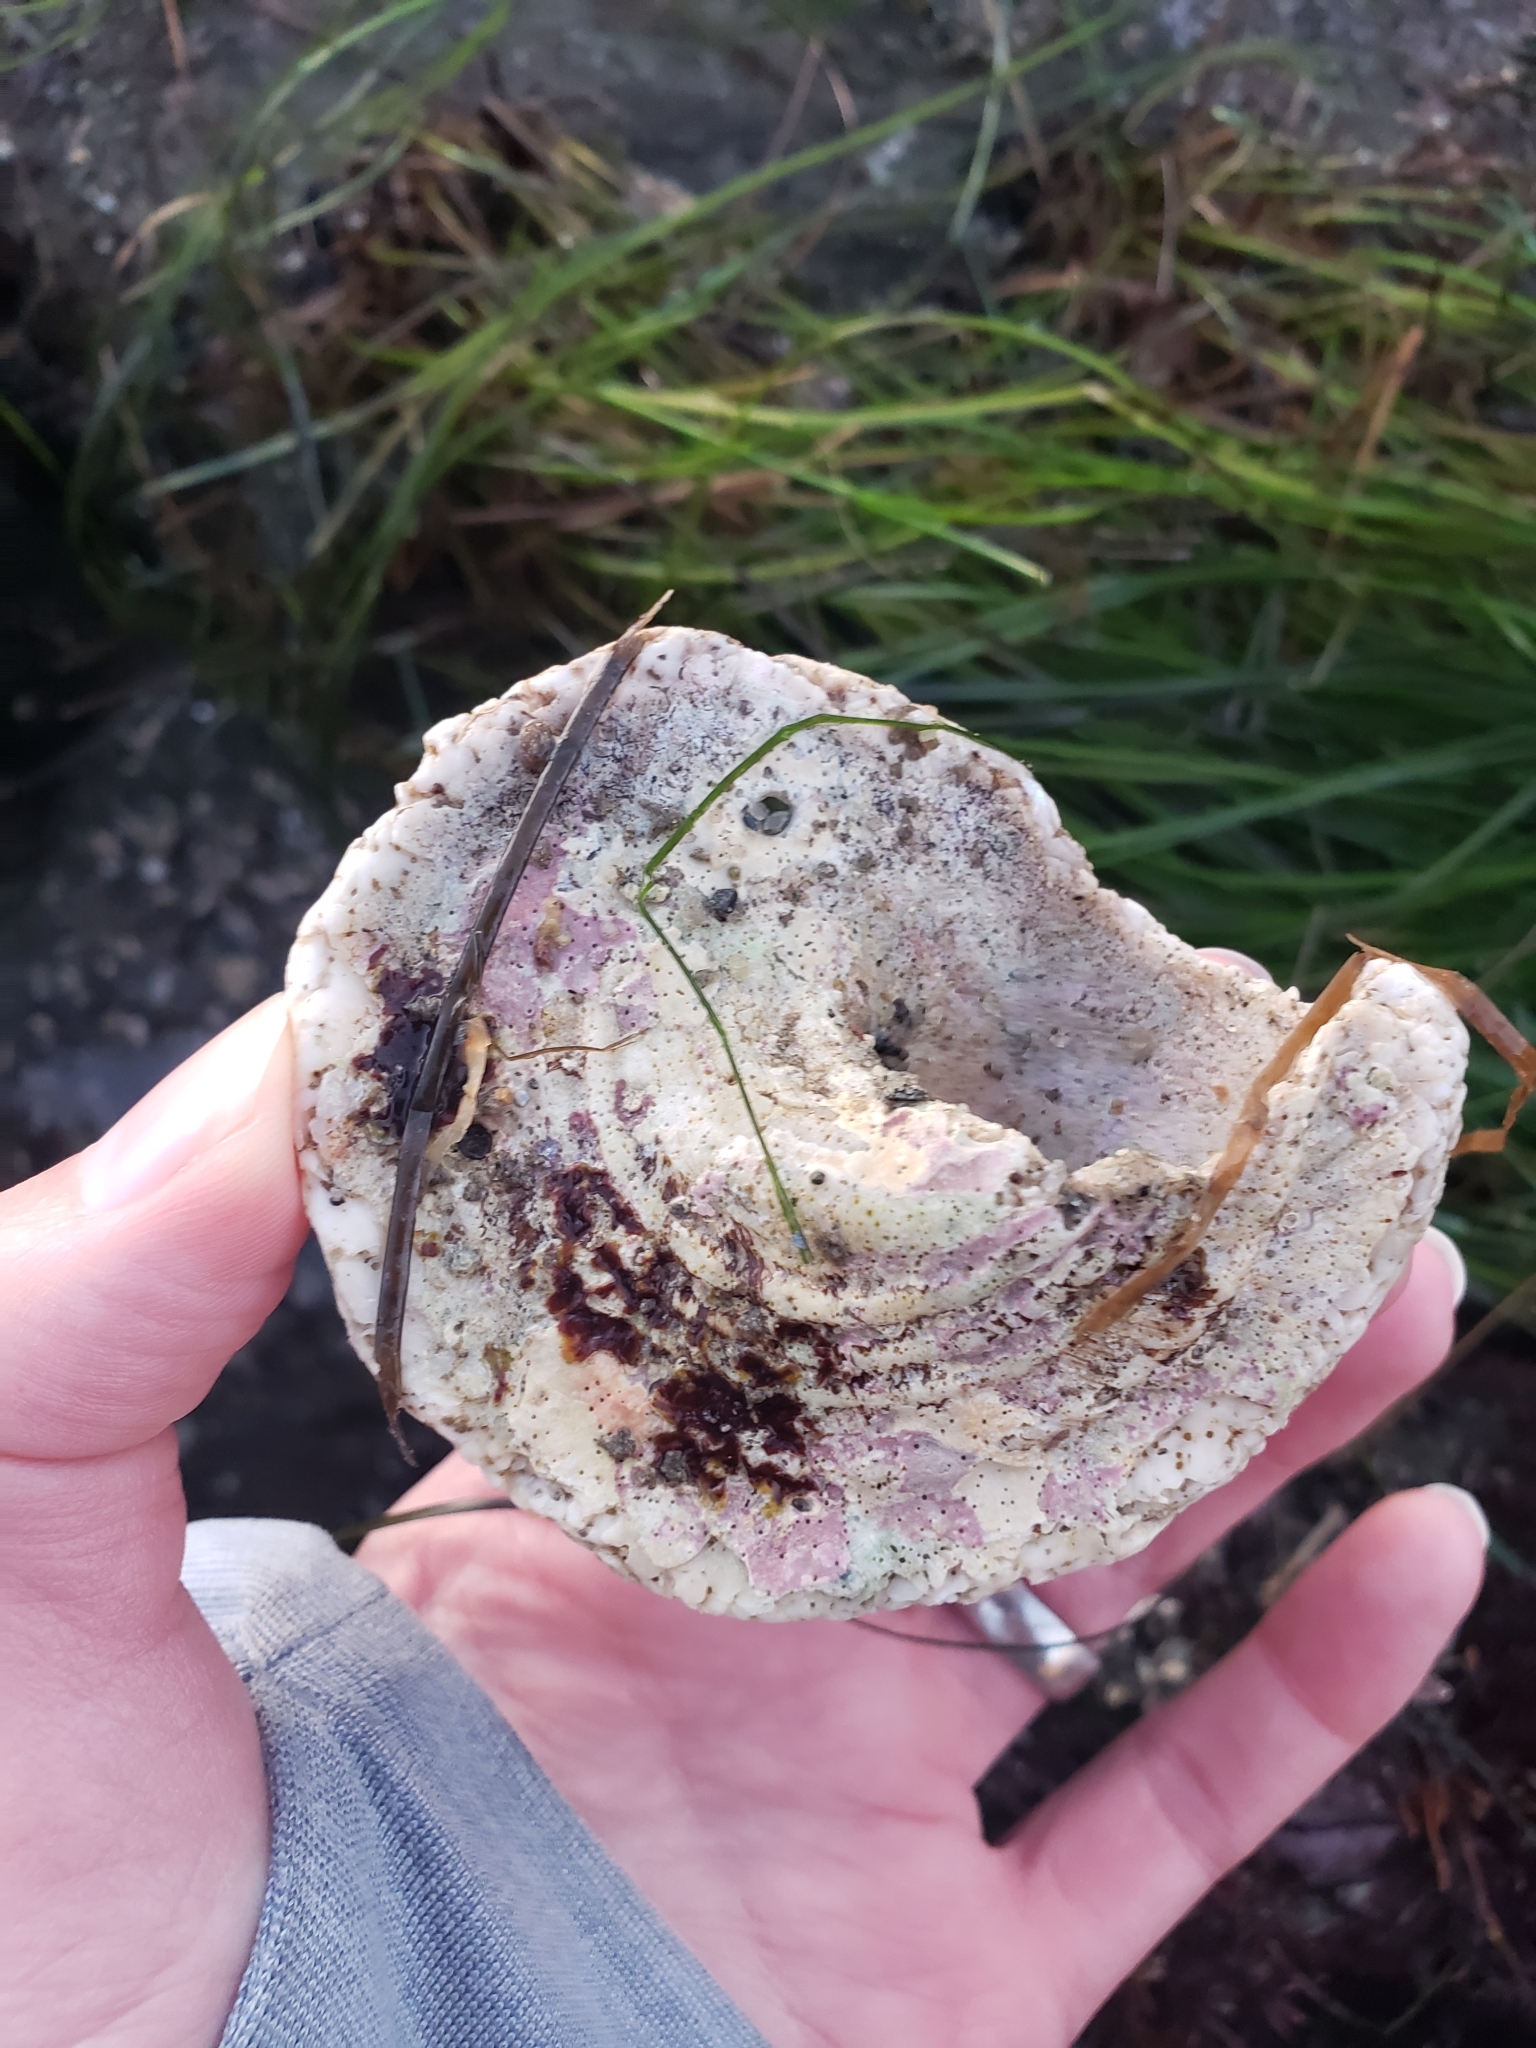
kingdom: Animalia
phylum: Mollusca
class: Gastropoda
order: Trochida
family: Turbinidae
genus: Megastraea
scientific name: Megastraea undosa
